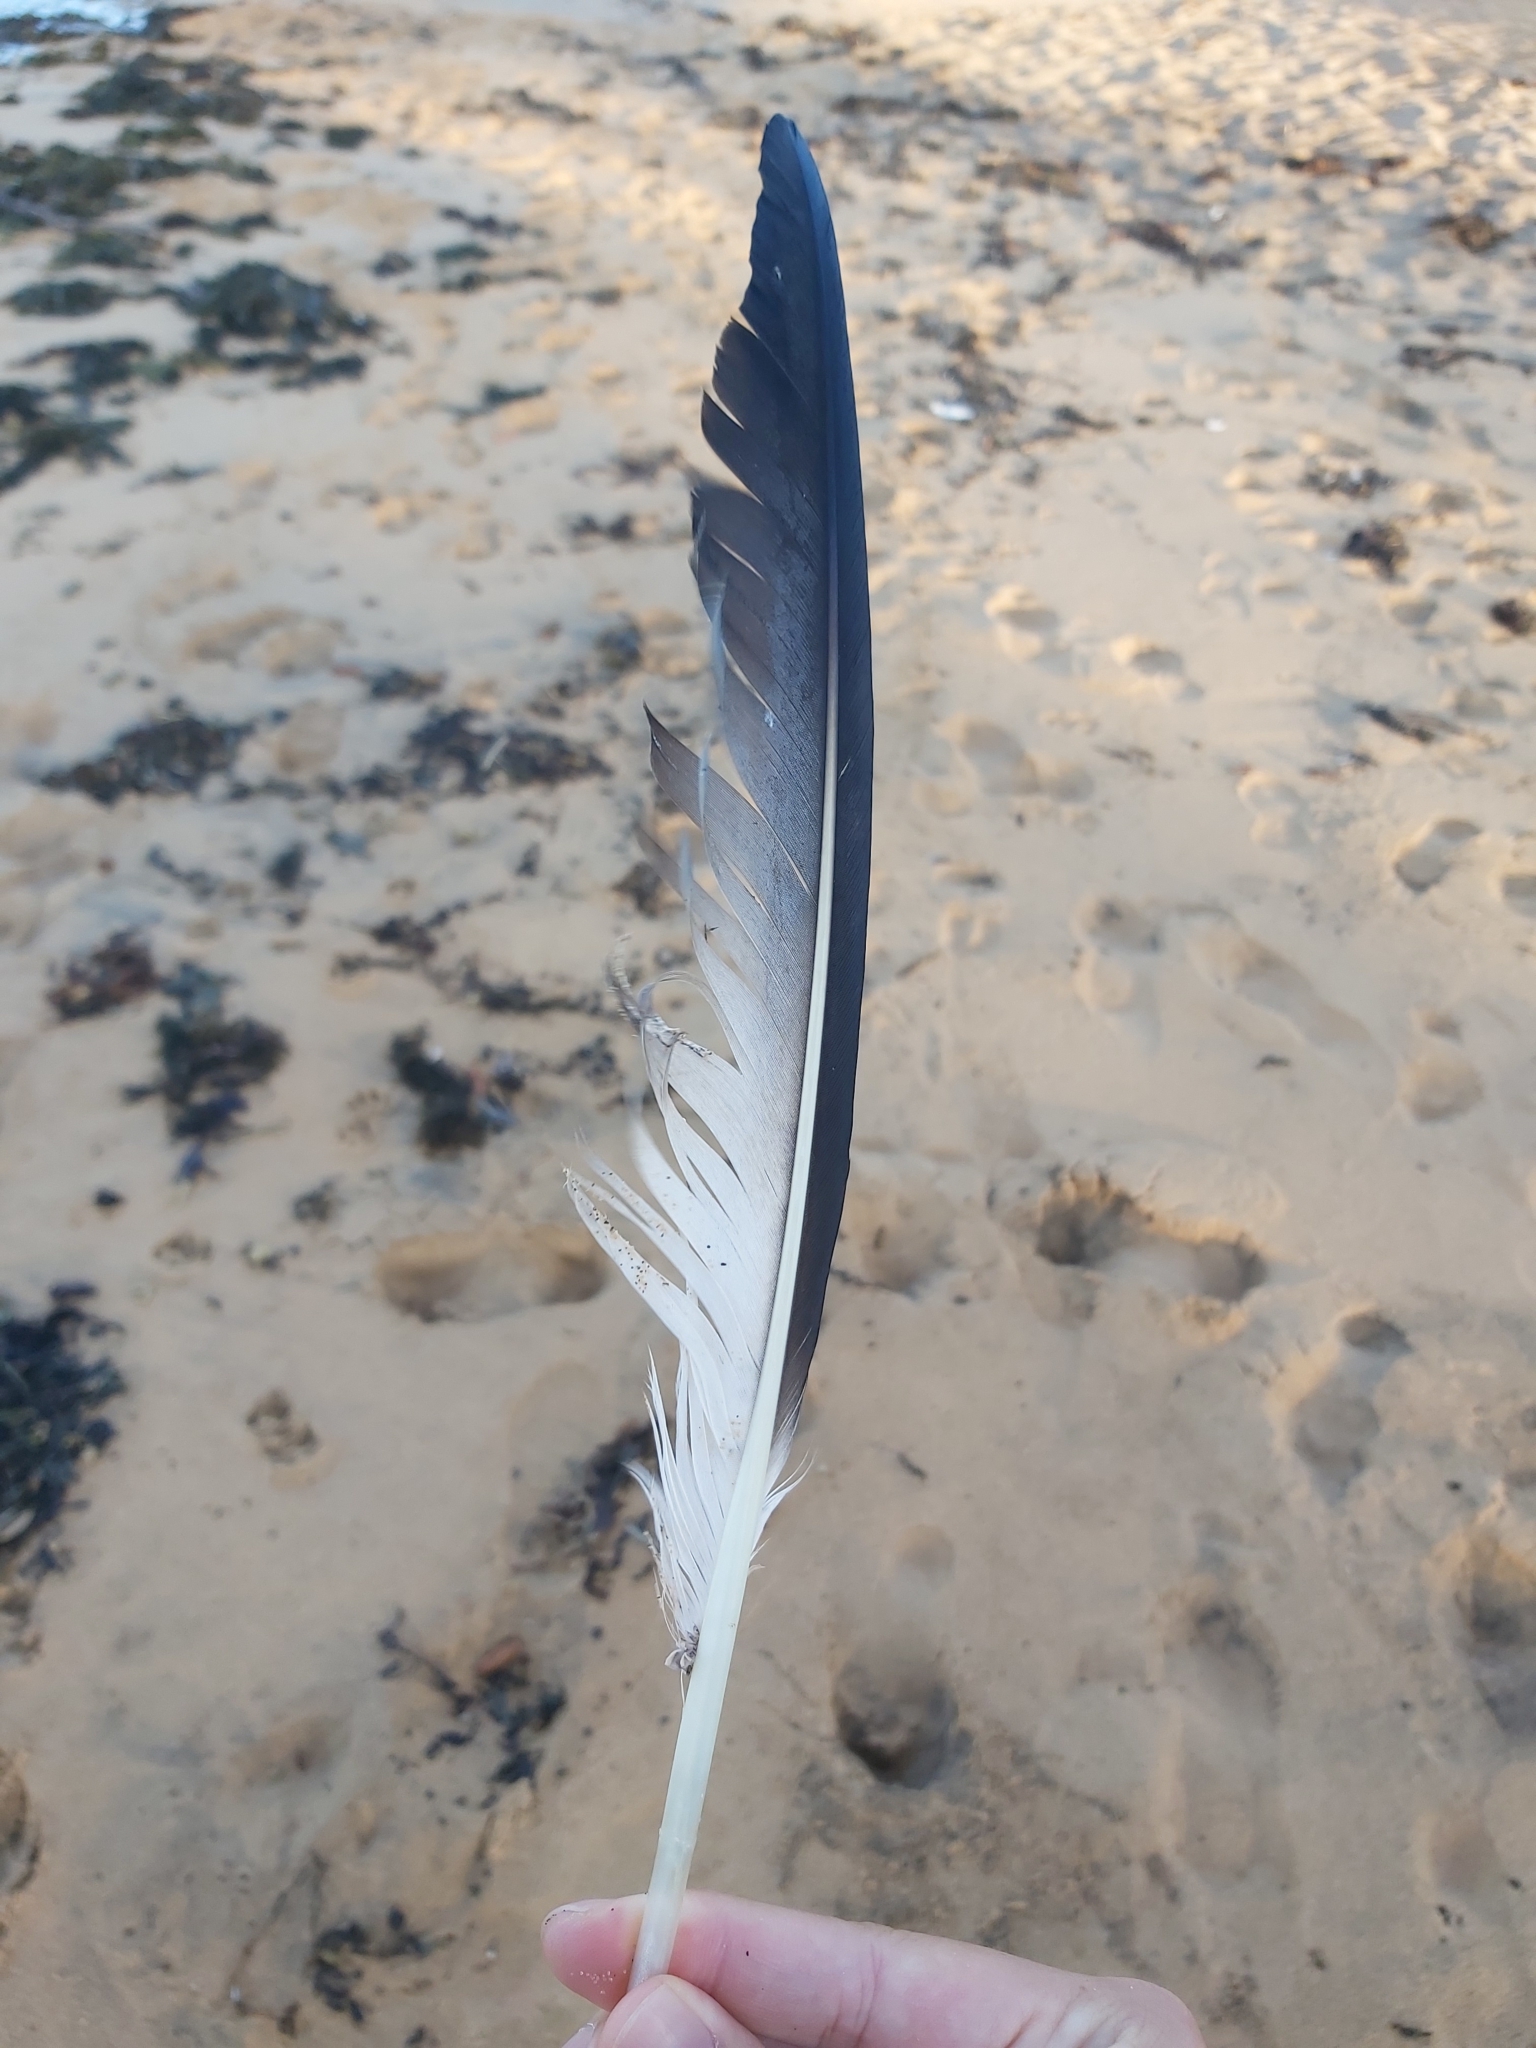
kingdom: Animalia
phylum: Chordata
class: Aves
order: Suliformes
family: Sulidae
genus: Morus
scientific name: Morus serrator
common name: Australasian gannet
